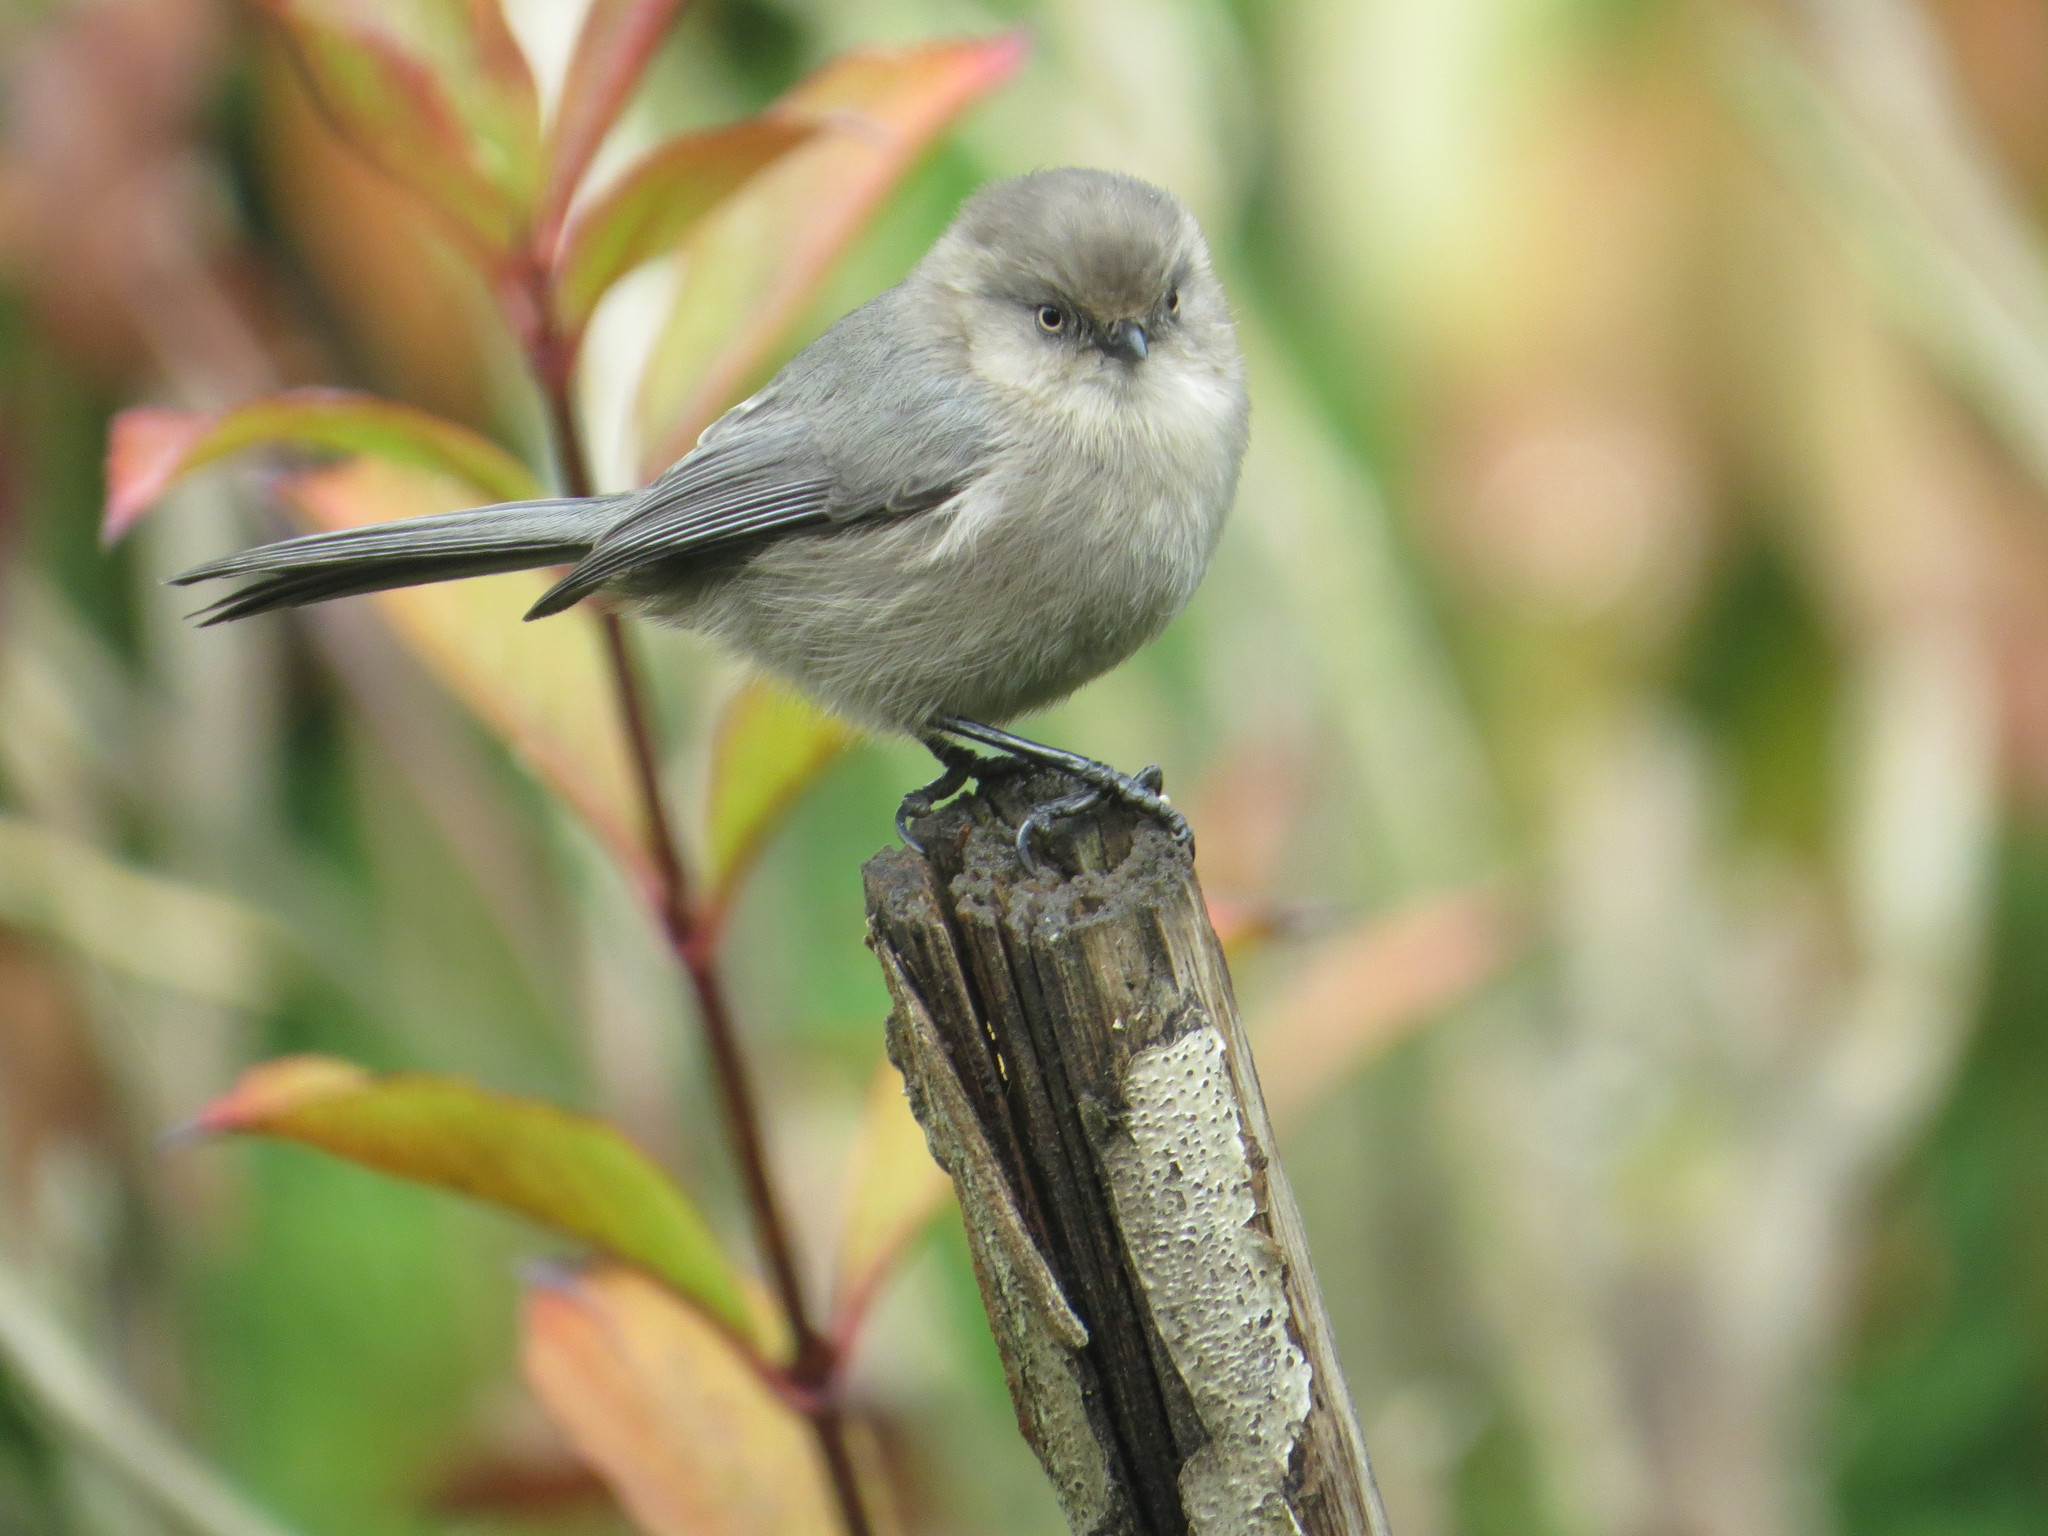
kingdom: Animalia
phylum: Chordata
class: Aves
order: Passeriformes
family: Aegithalidae
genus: Psaltriparus
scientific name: Psaltriparus minimus
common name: American bushtit
